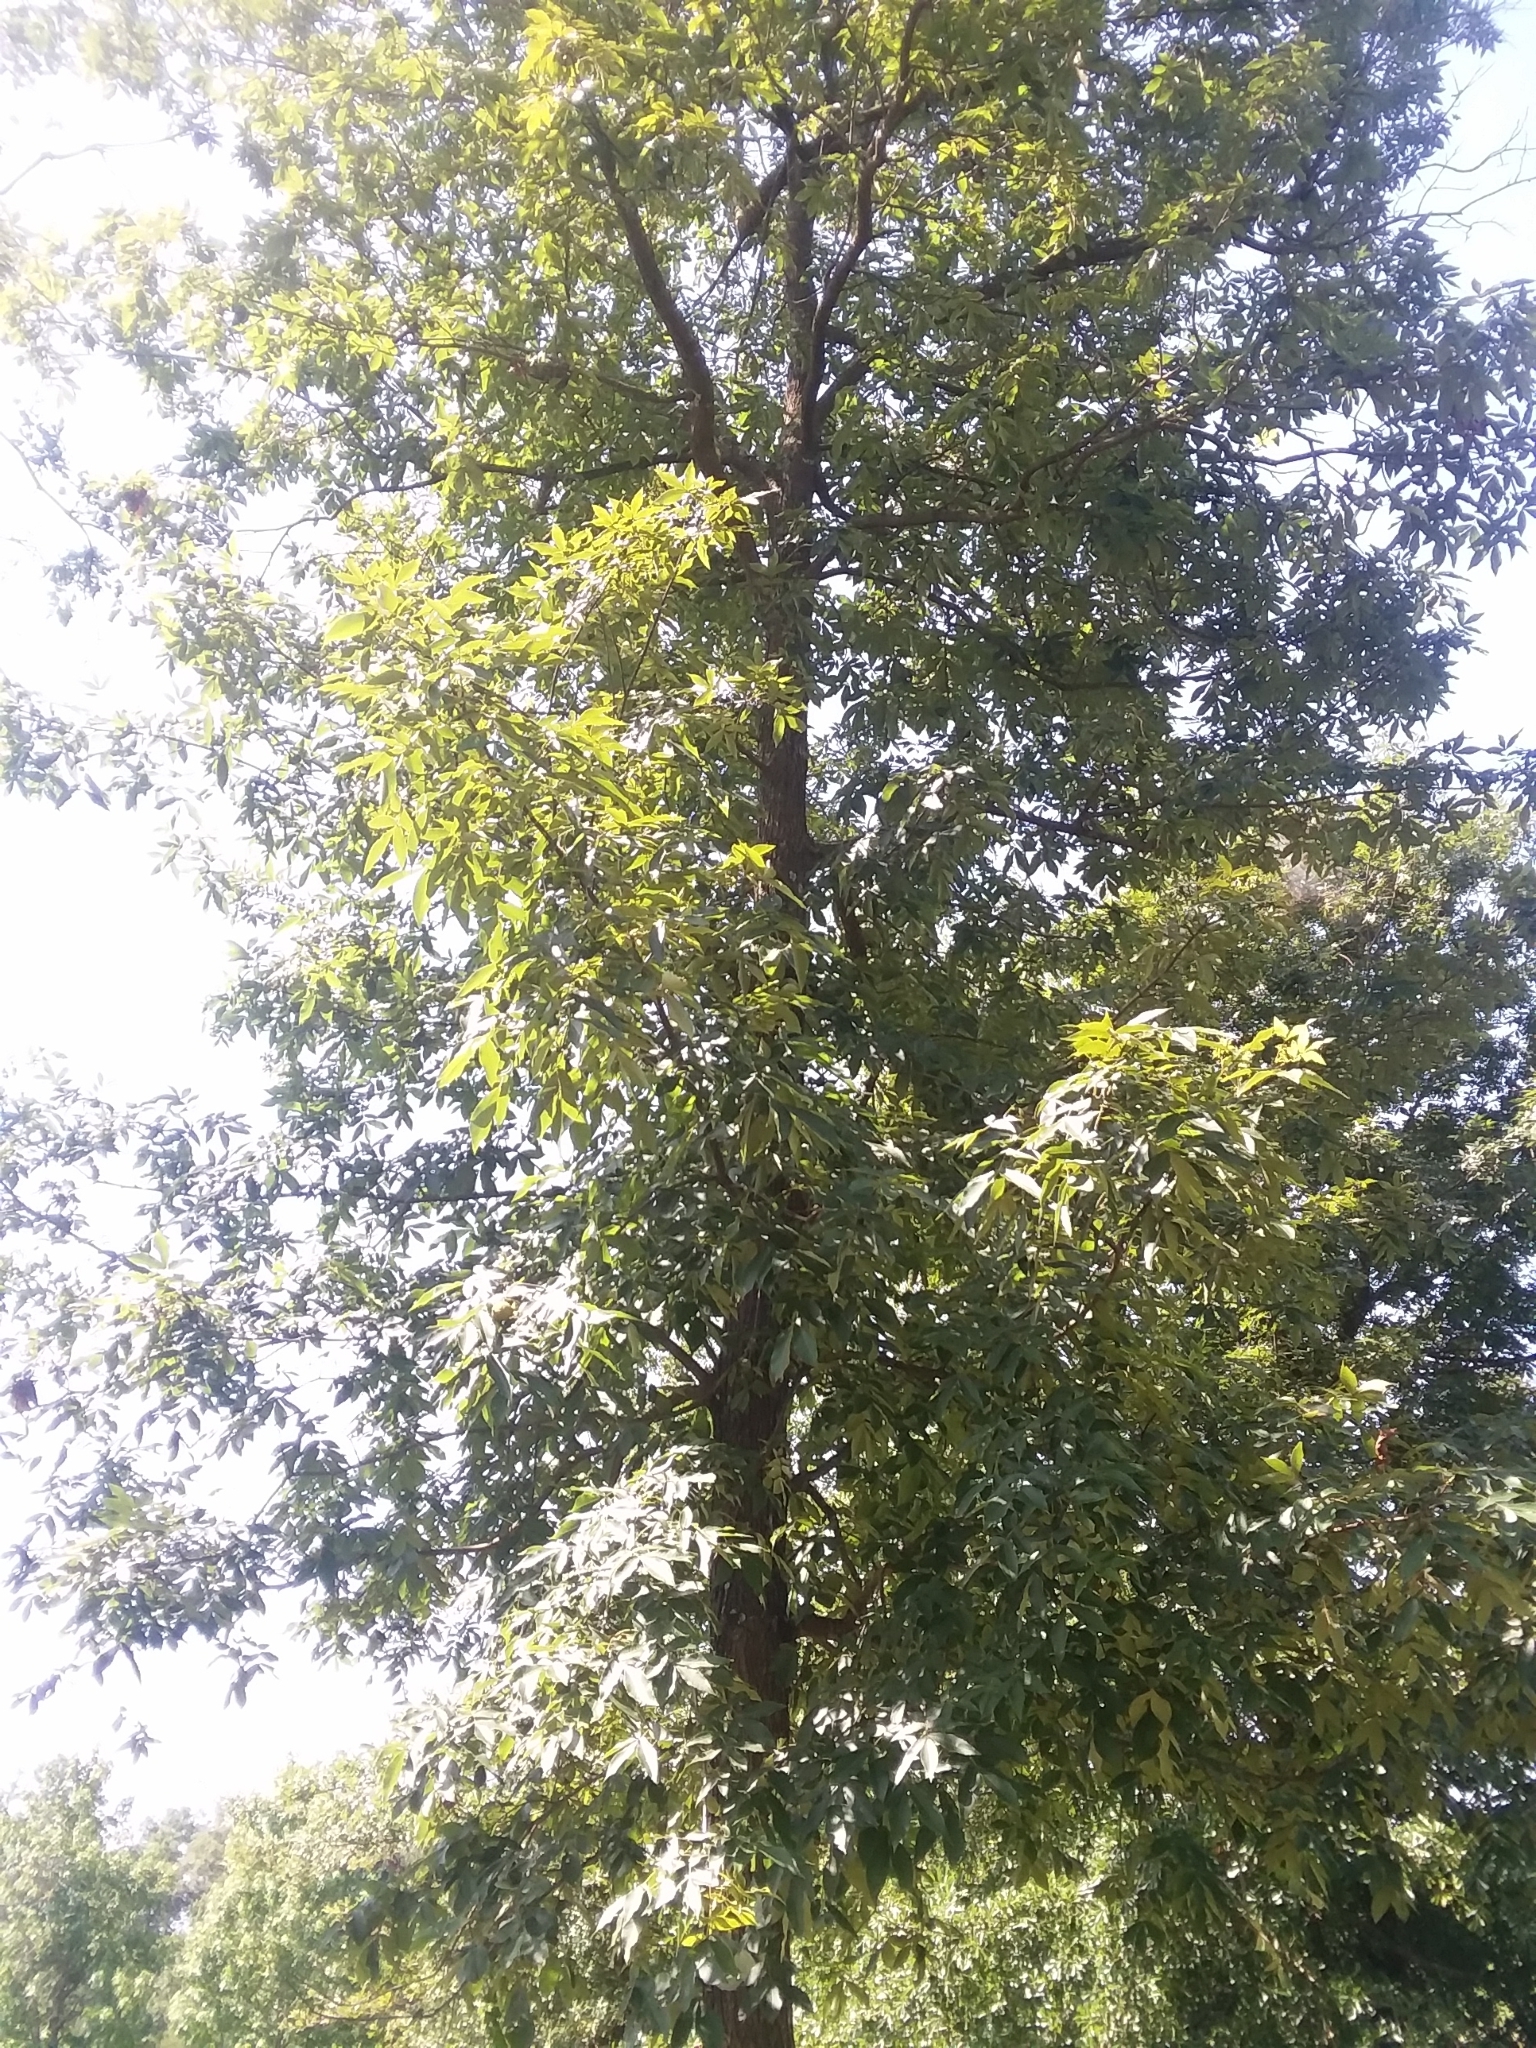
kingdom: Plantae
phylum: Tracheophyta
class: Magnoliopsida
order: Fagales
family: Juglandaceae
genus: Carya
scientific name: Carya pallida
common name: Sand hickory
